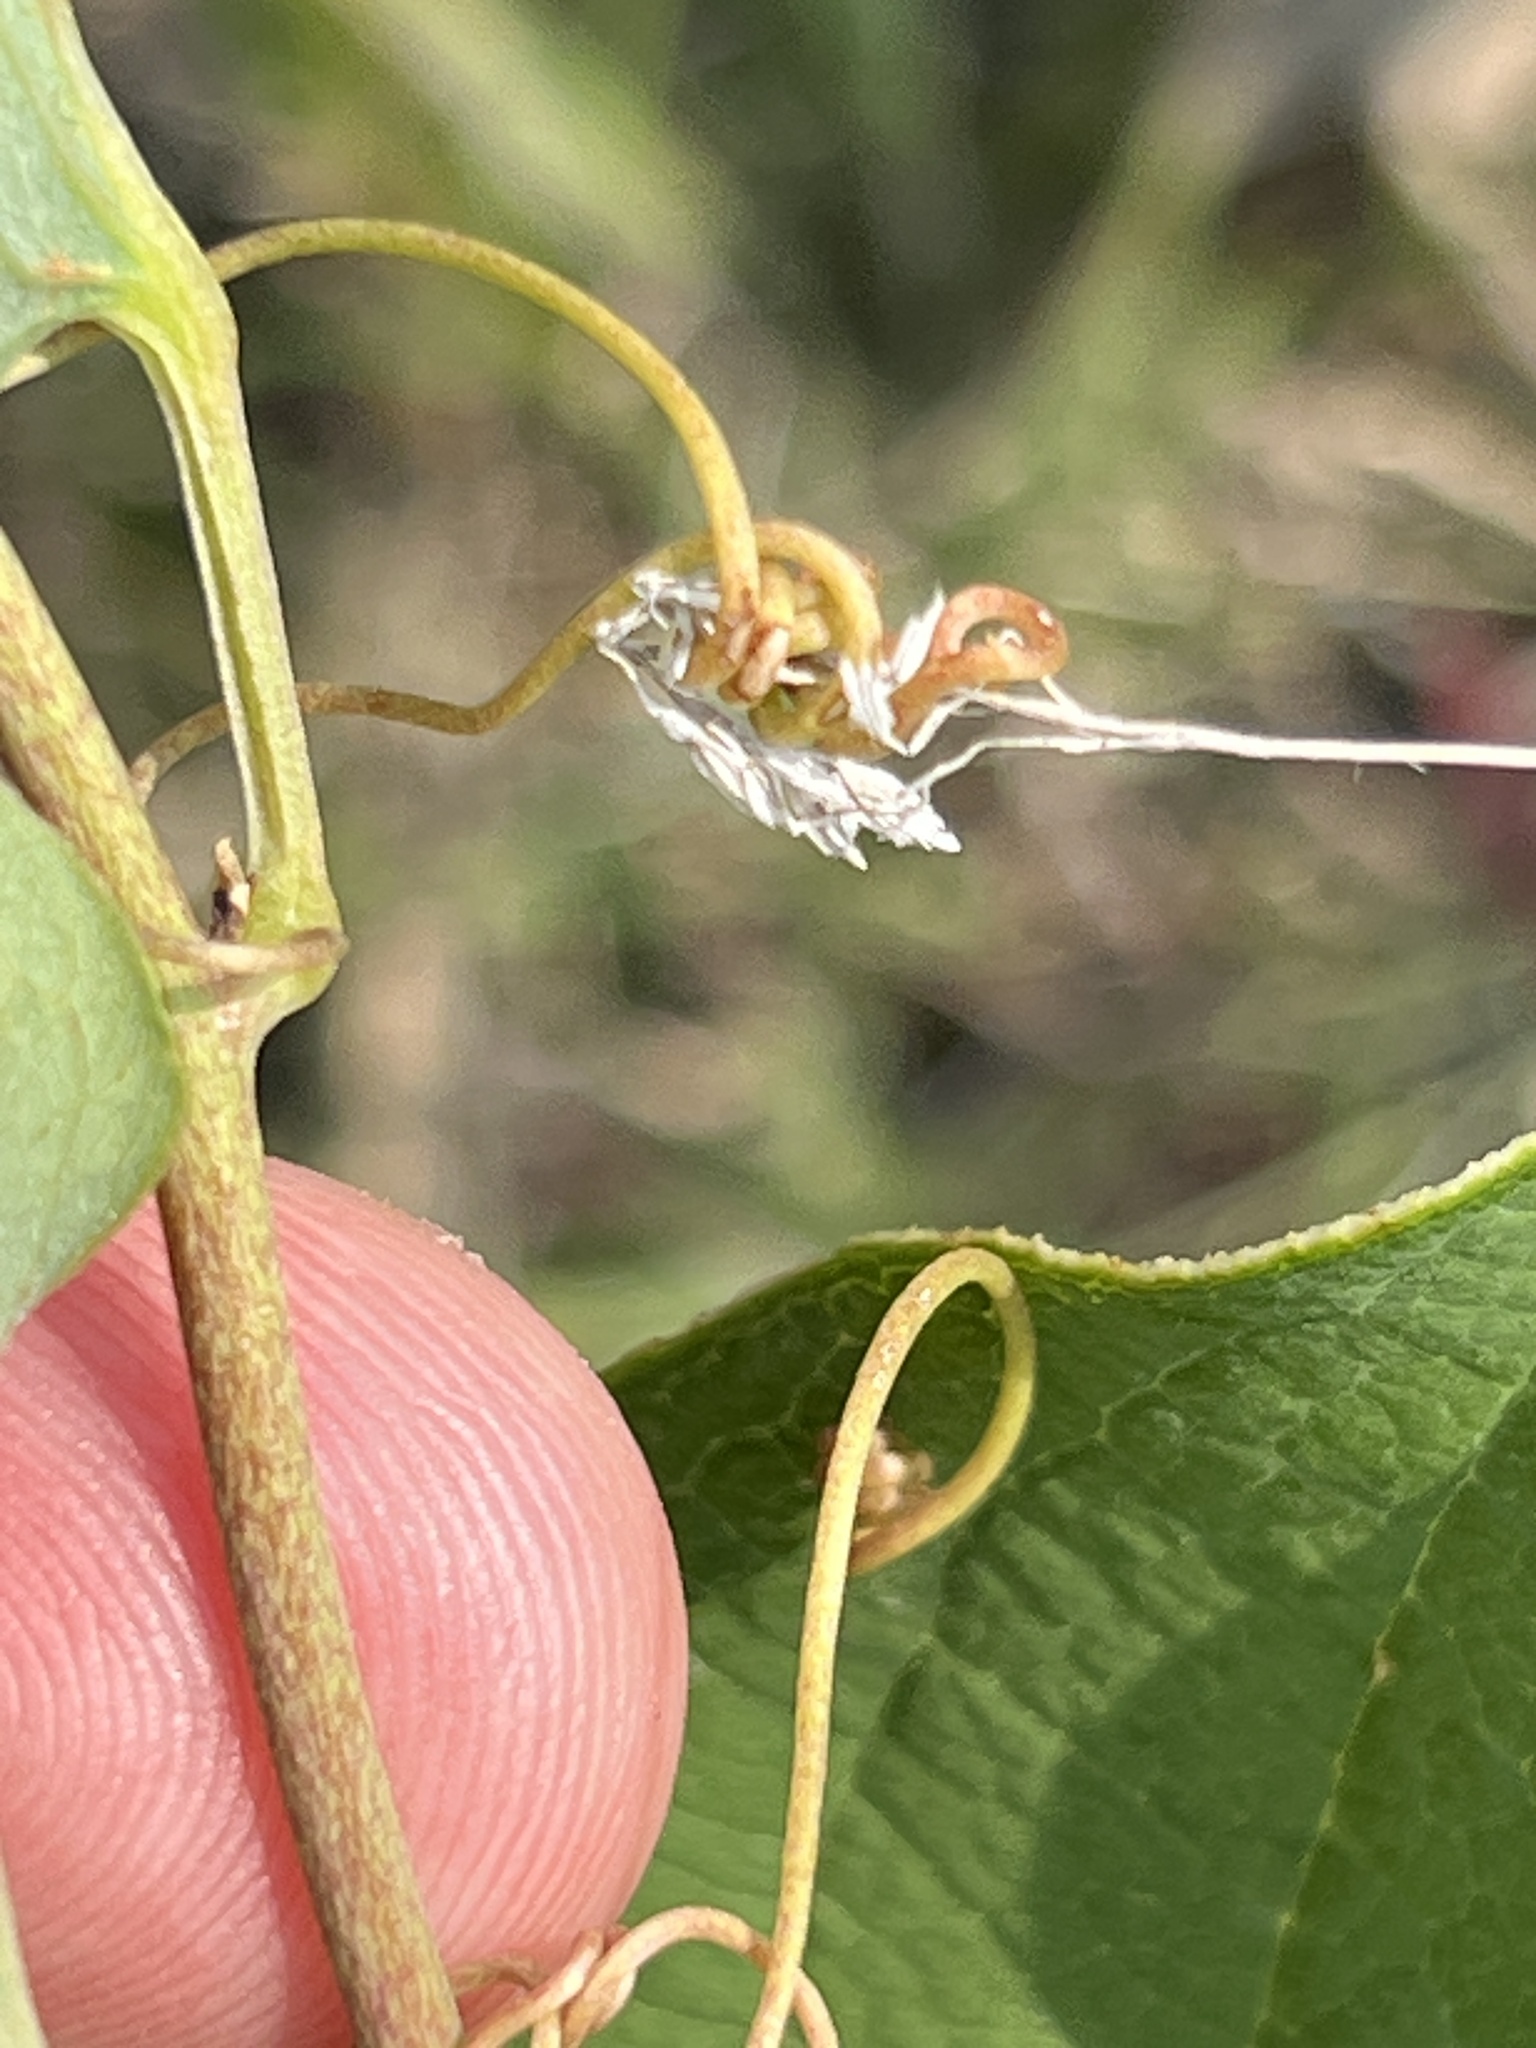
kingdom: Plantae
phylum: Tracheophyta
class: Liliopsida
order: Liliales
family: Smilacaceae
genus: Smilax
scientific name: Smilax lasioneura
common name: Blue ridge carrionflower
